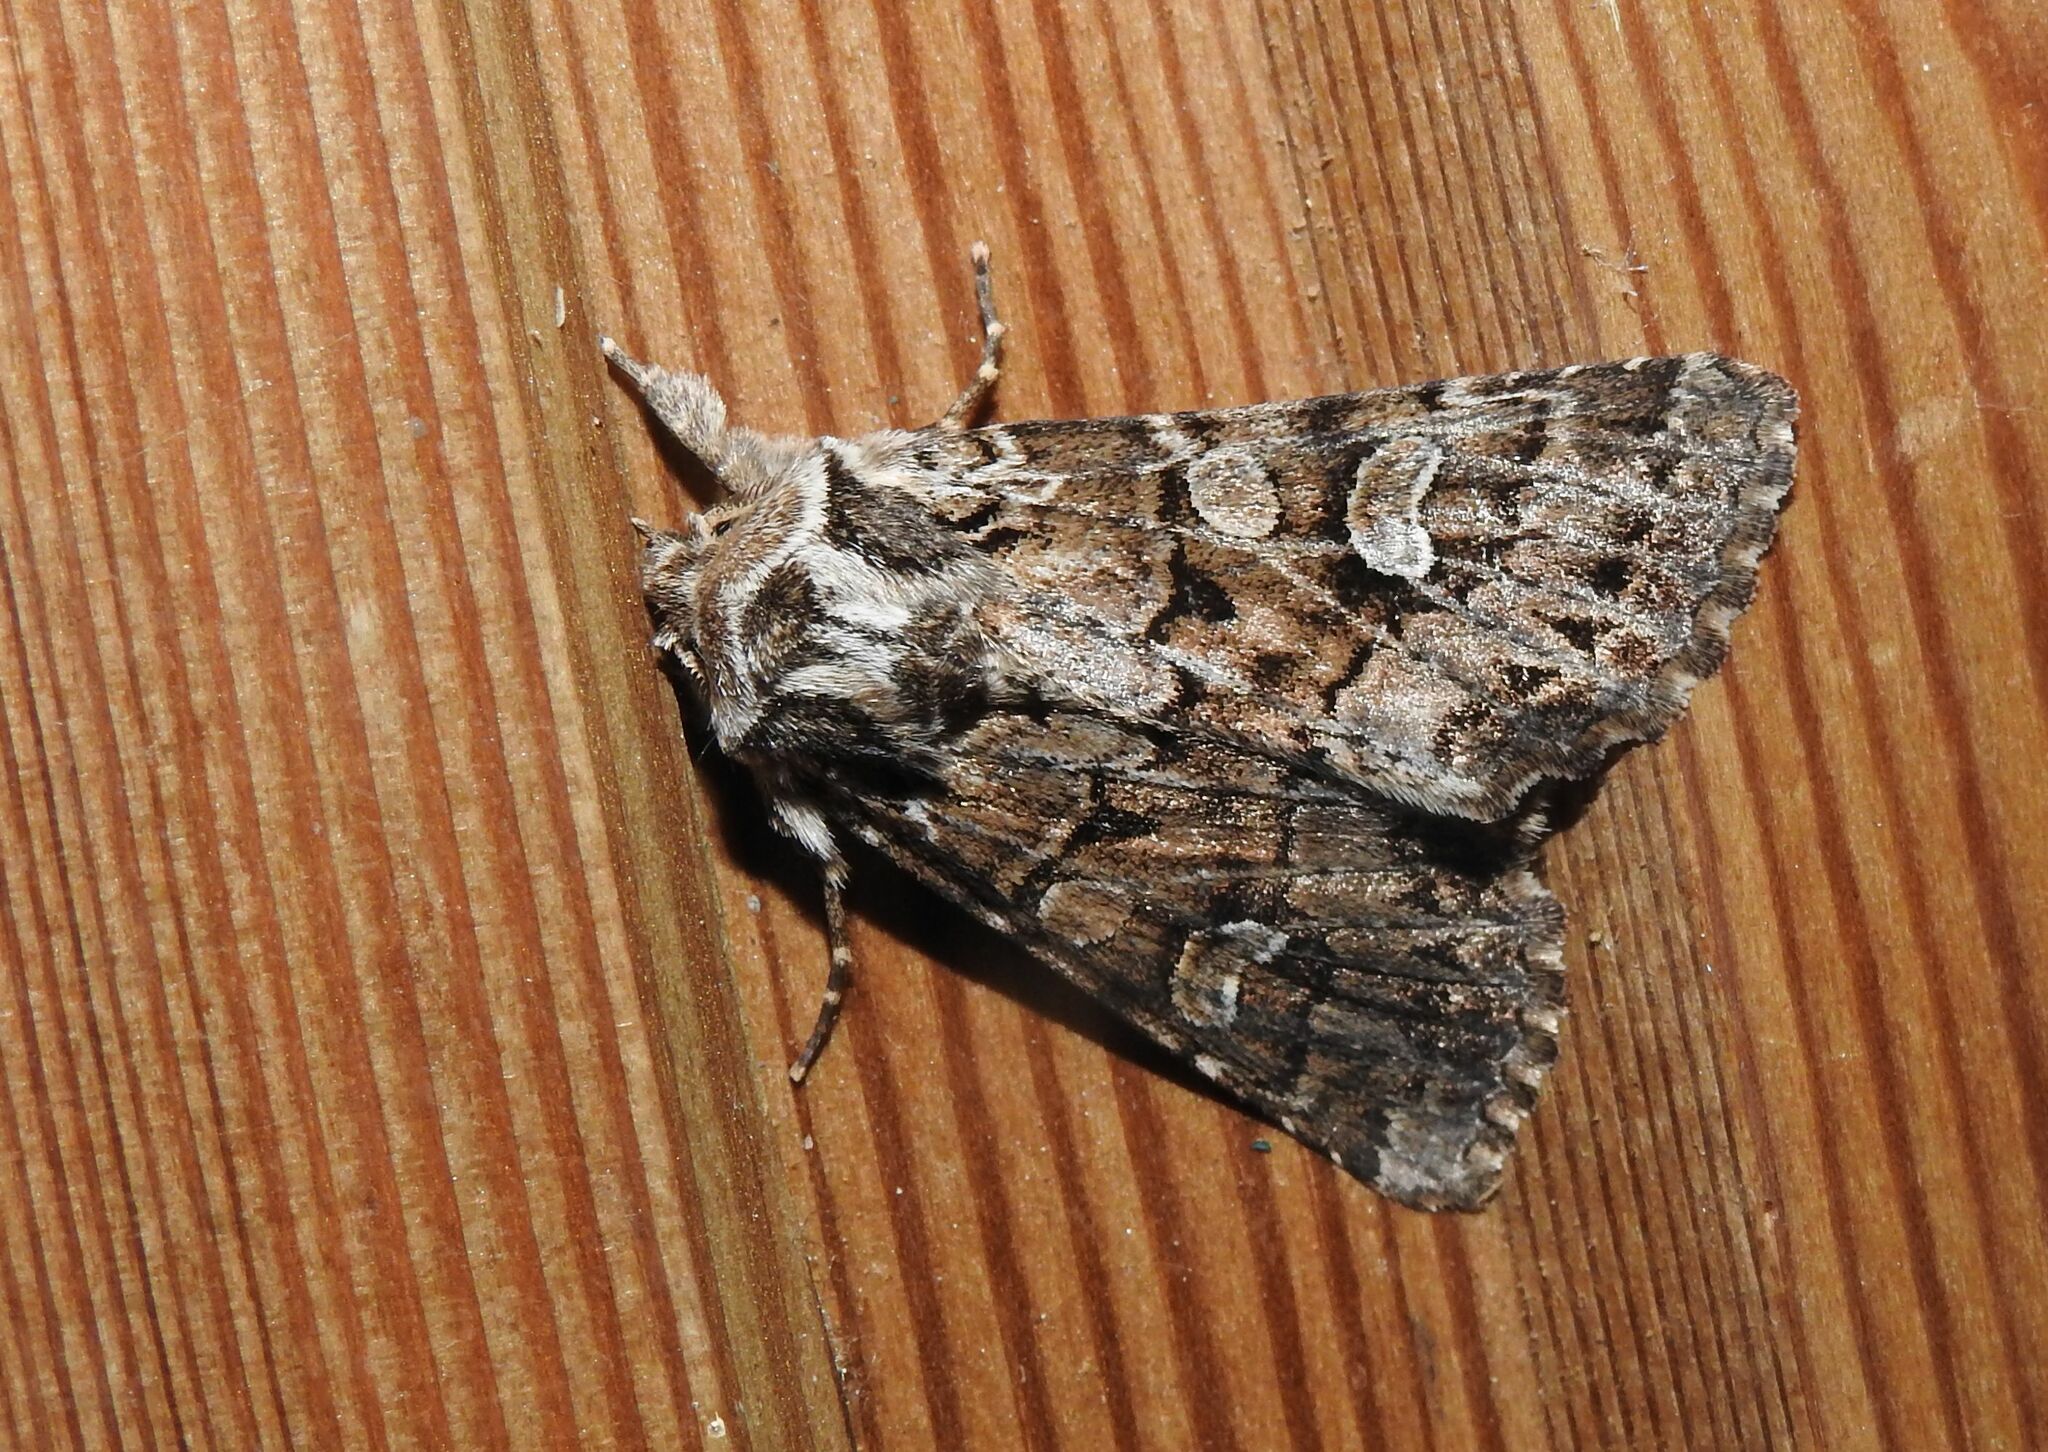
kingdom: Animalia
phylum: Arthropoda
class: Insecta
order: Lepidoptera
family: Noctuidae
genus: Pachetra
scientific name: Pachetra sagittigera
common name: Feathered ear
